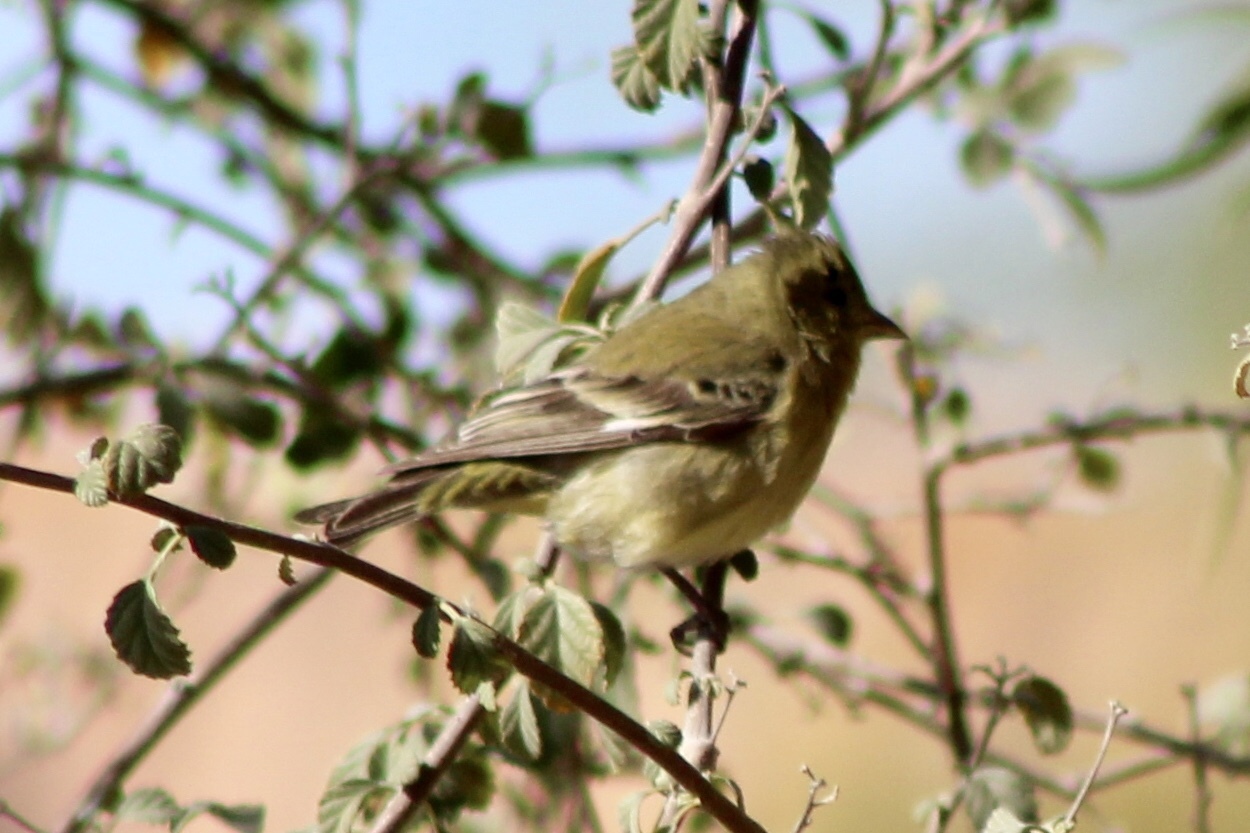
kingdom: Animalia
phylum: Chordata
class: Aves
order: Passeriformes
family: Fringillidae
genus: Spinus
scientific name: Spinus psaltria
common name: Lesser goldfinch
